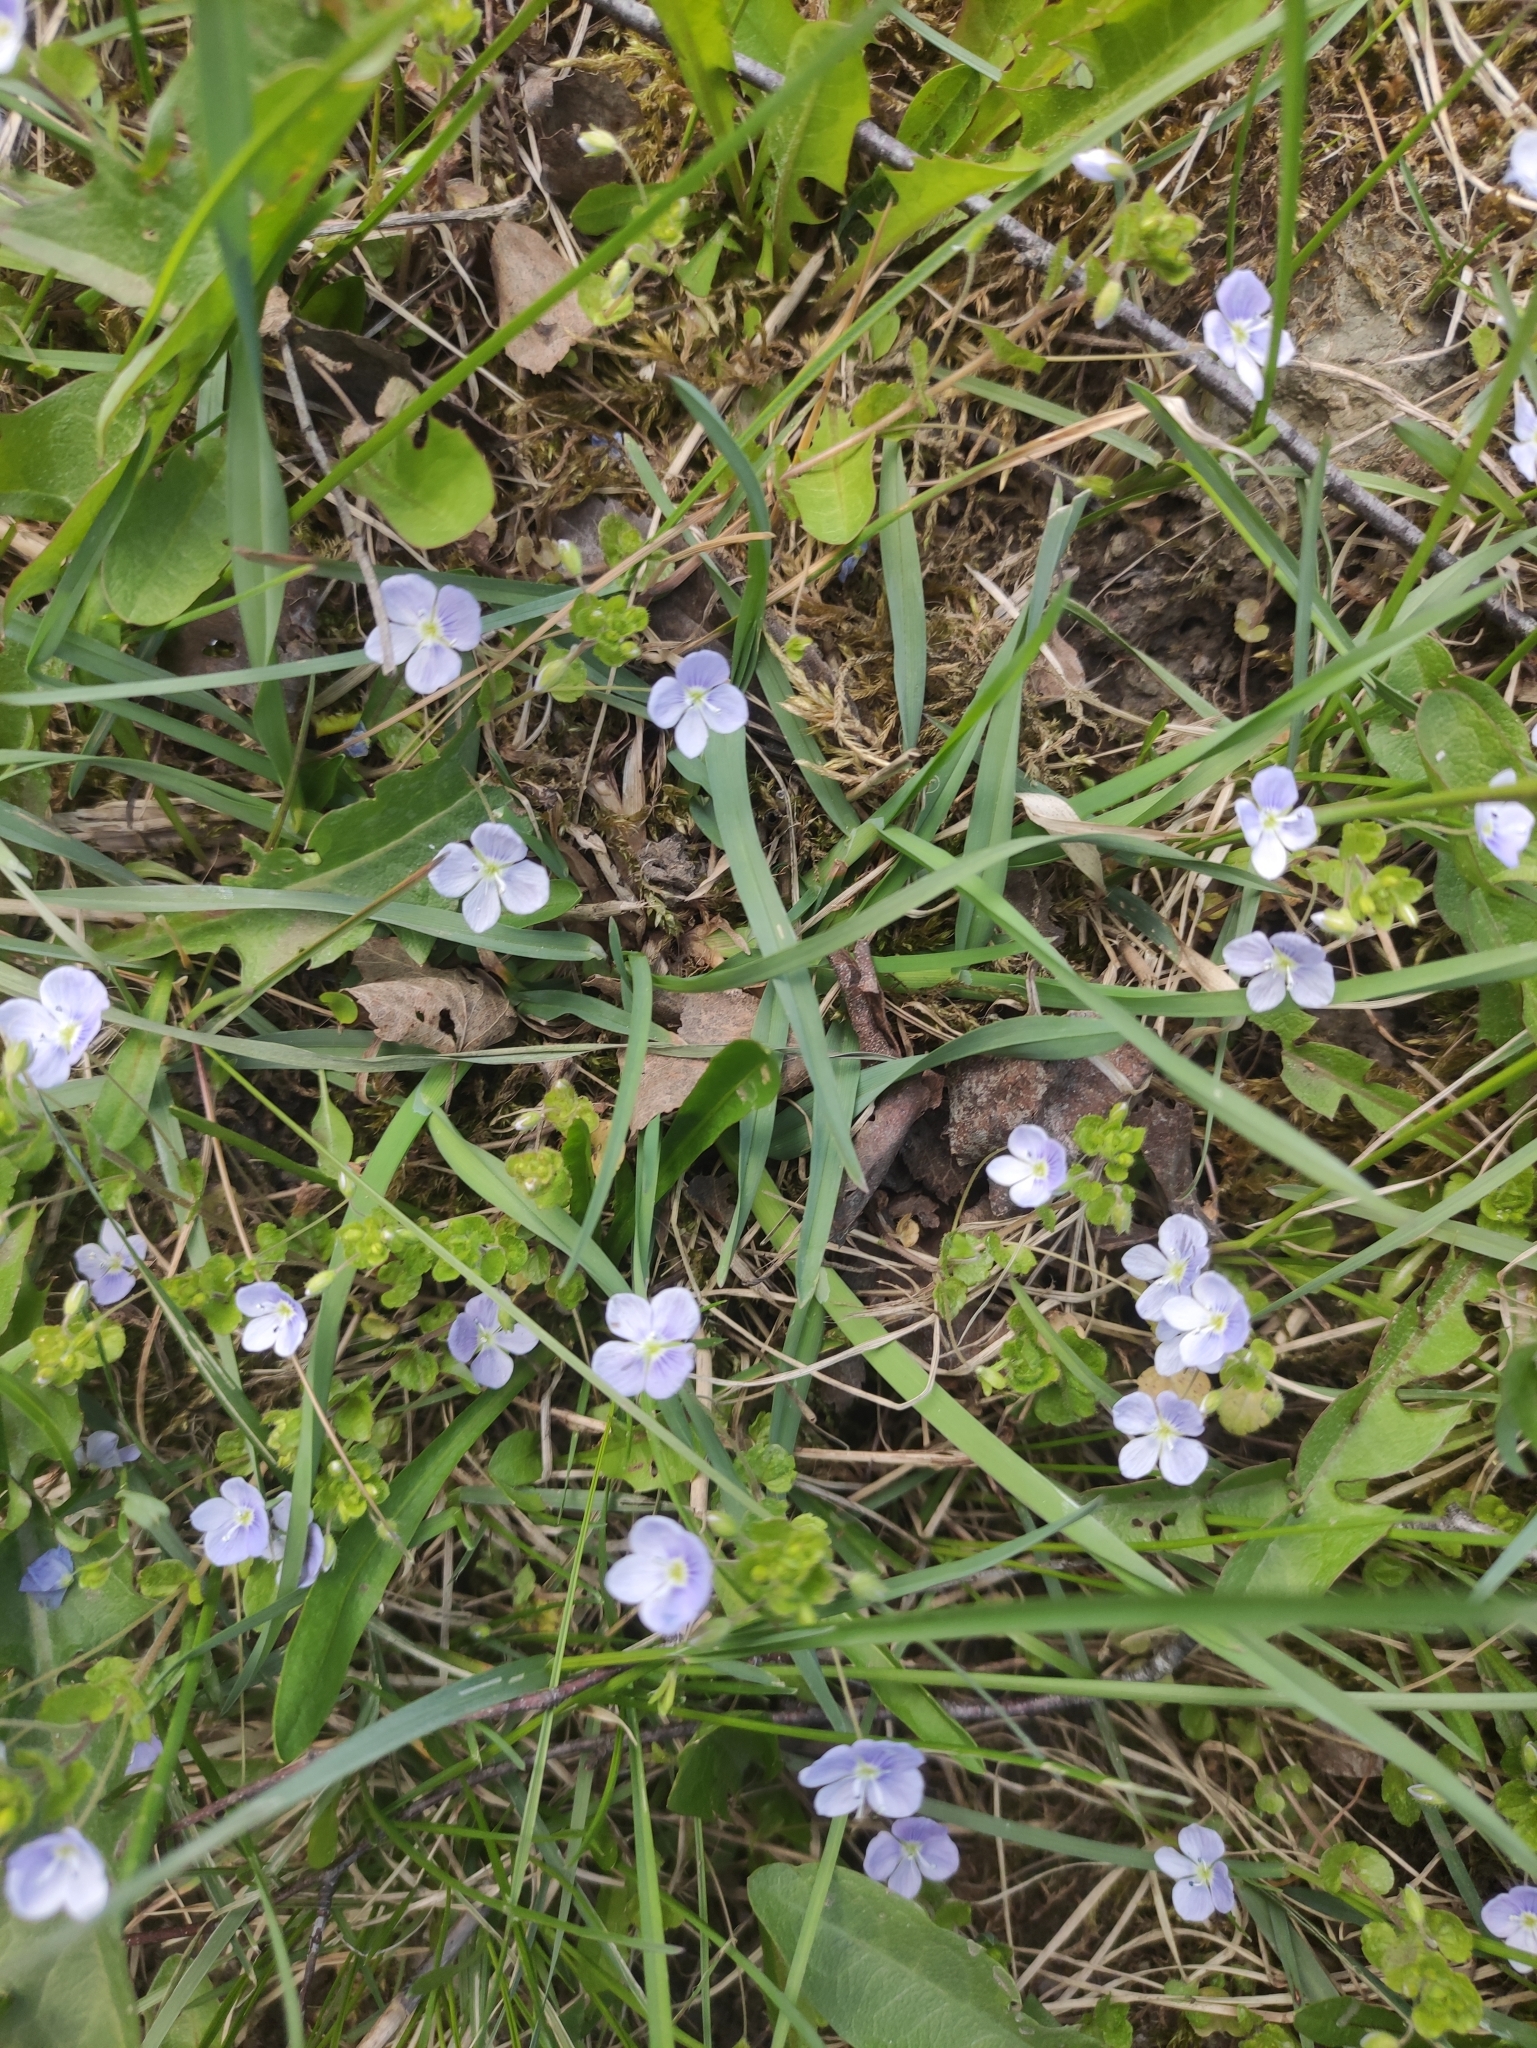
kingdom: Plantae
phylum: Tracheophyta
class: Magnoliopsida
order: Lamiales
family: Plantaginaceae
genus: Veronica
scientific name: Veronica filiformis
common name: Slender speedwell
